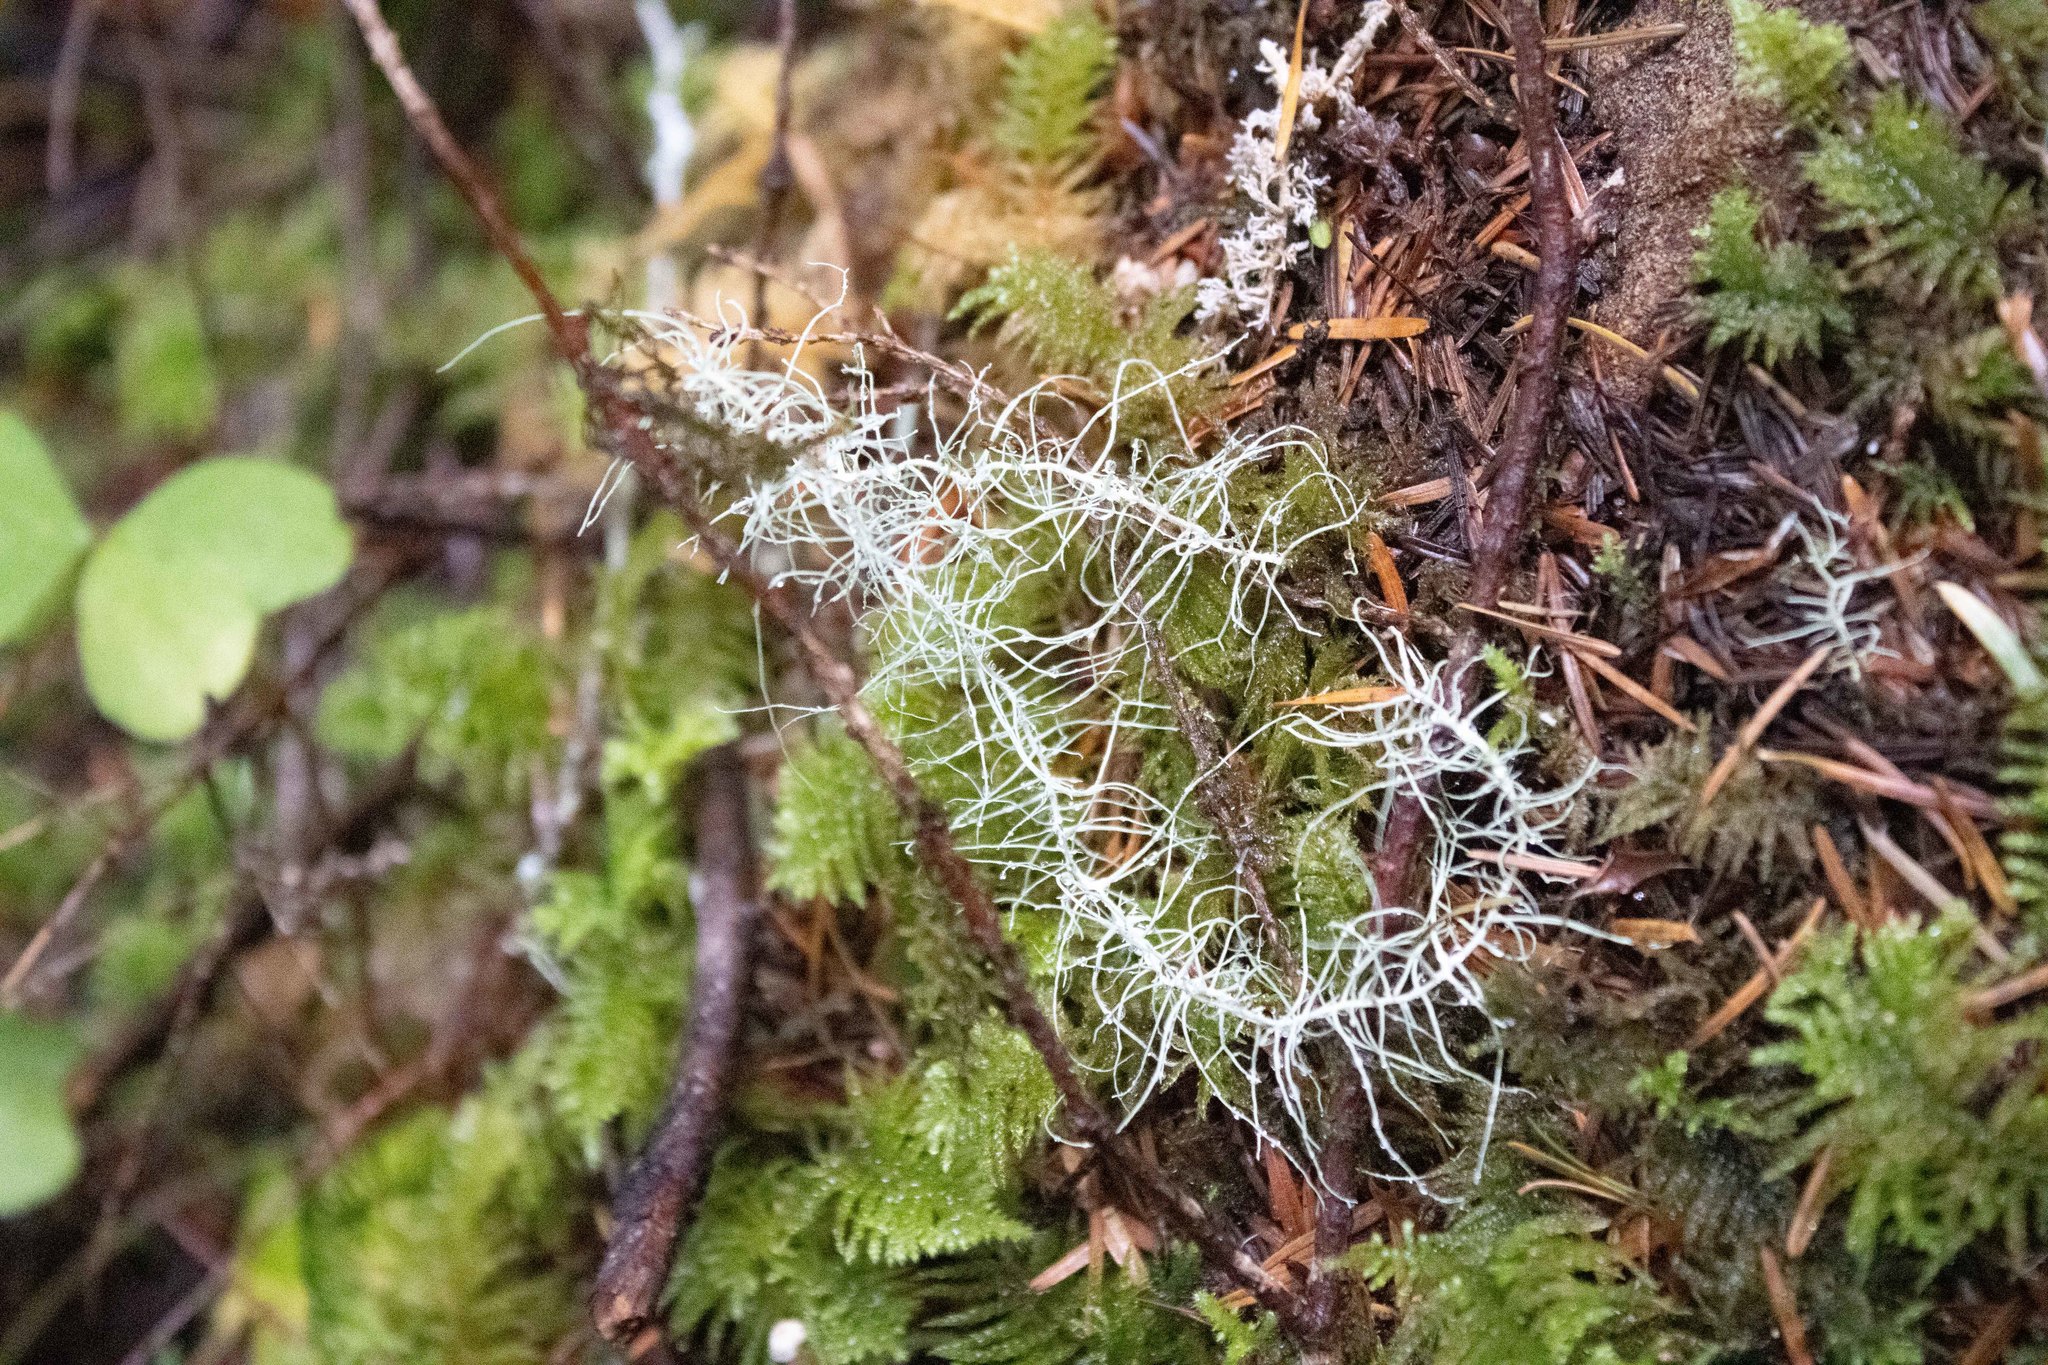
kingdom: Fungi
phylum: Ascomycota
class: Lecanoromycetes
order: Lecanorales
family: Parmeliaceae
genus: Dolichousnea
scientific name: Dolichousnea longissima
